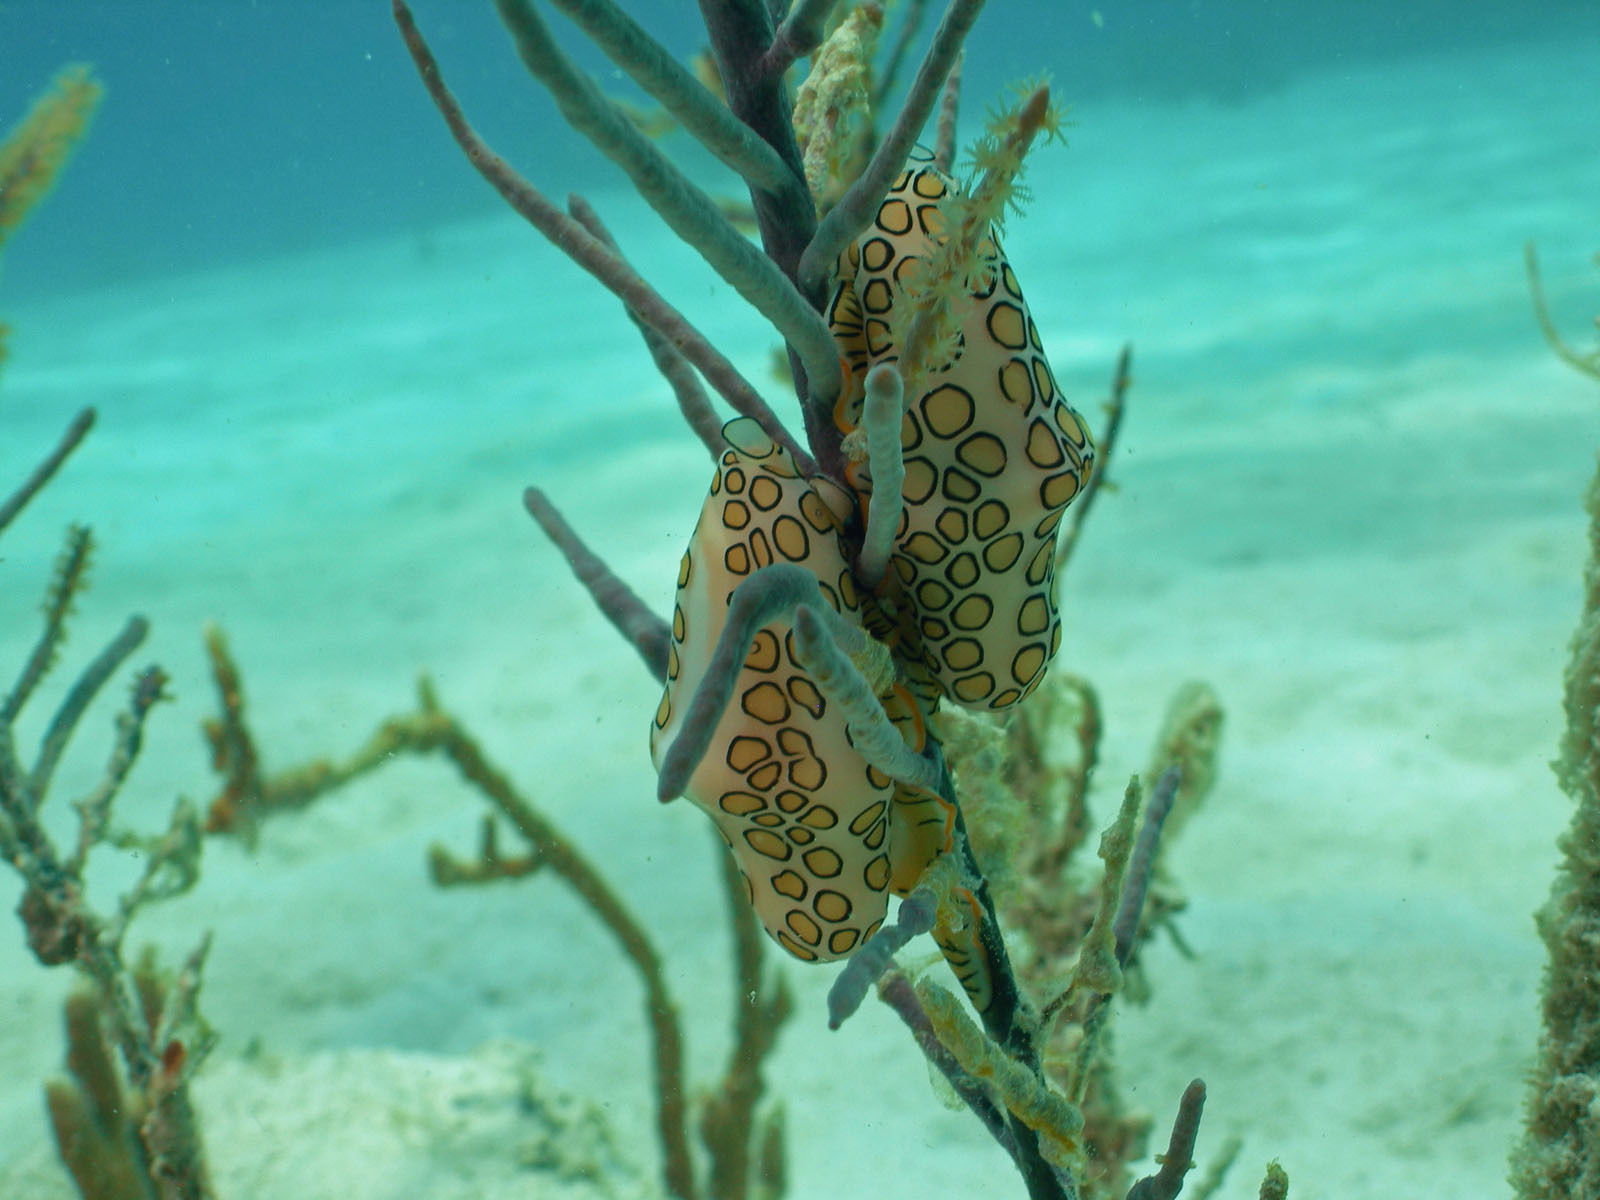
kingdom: Animalia
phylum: Mollusca
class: Gastropoda
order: Littorinimorpha
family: Ovulidae
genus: Cyphoma
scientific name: Cyphoma gibbosum
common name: Flamingo tongue
